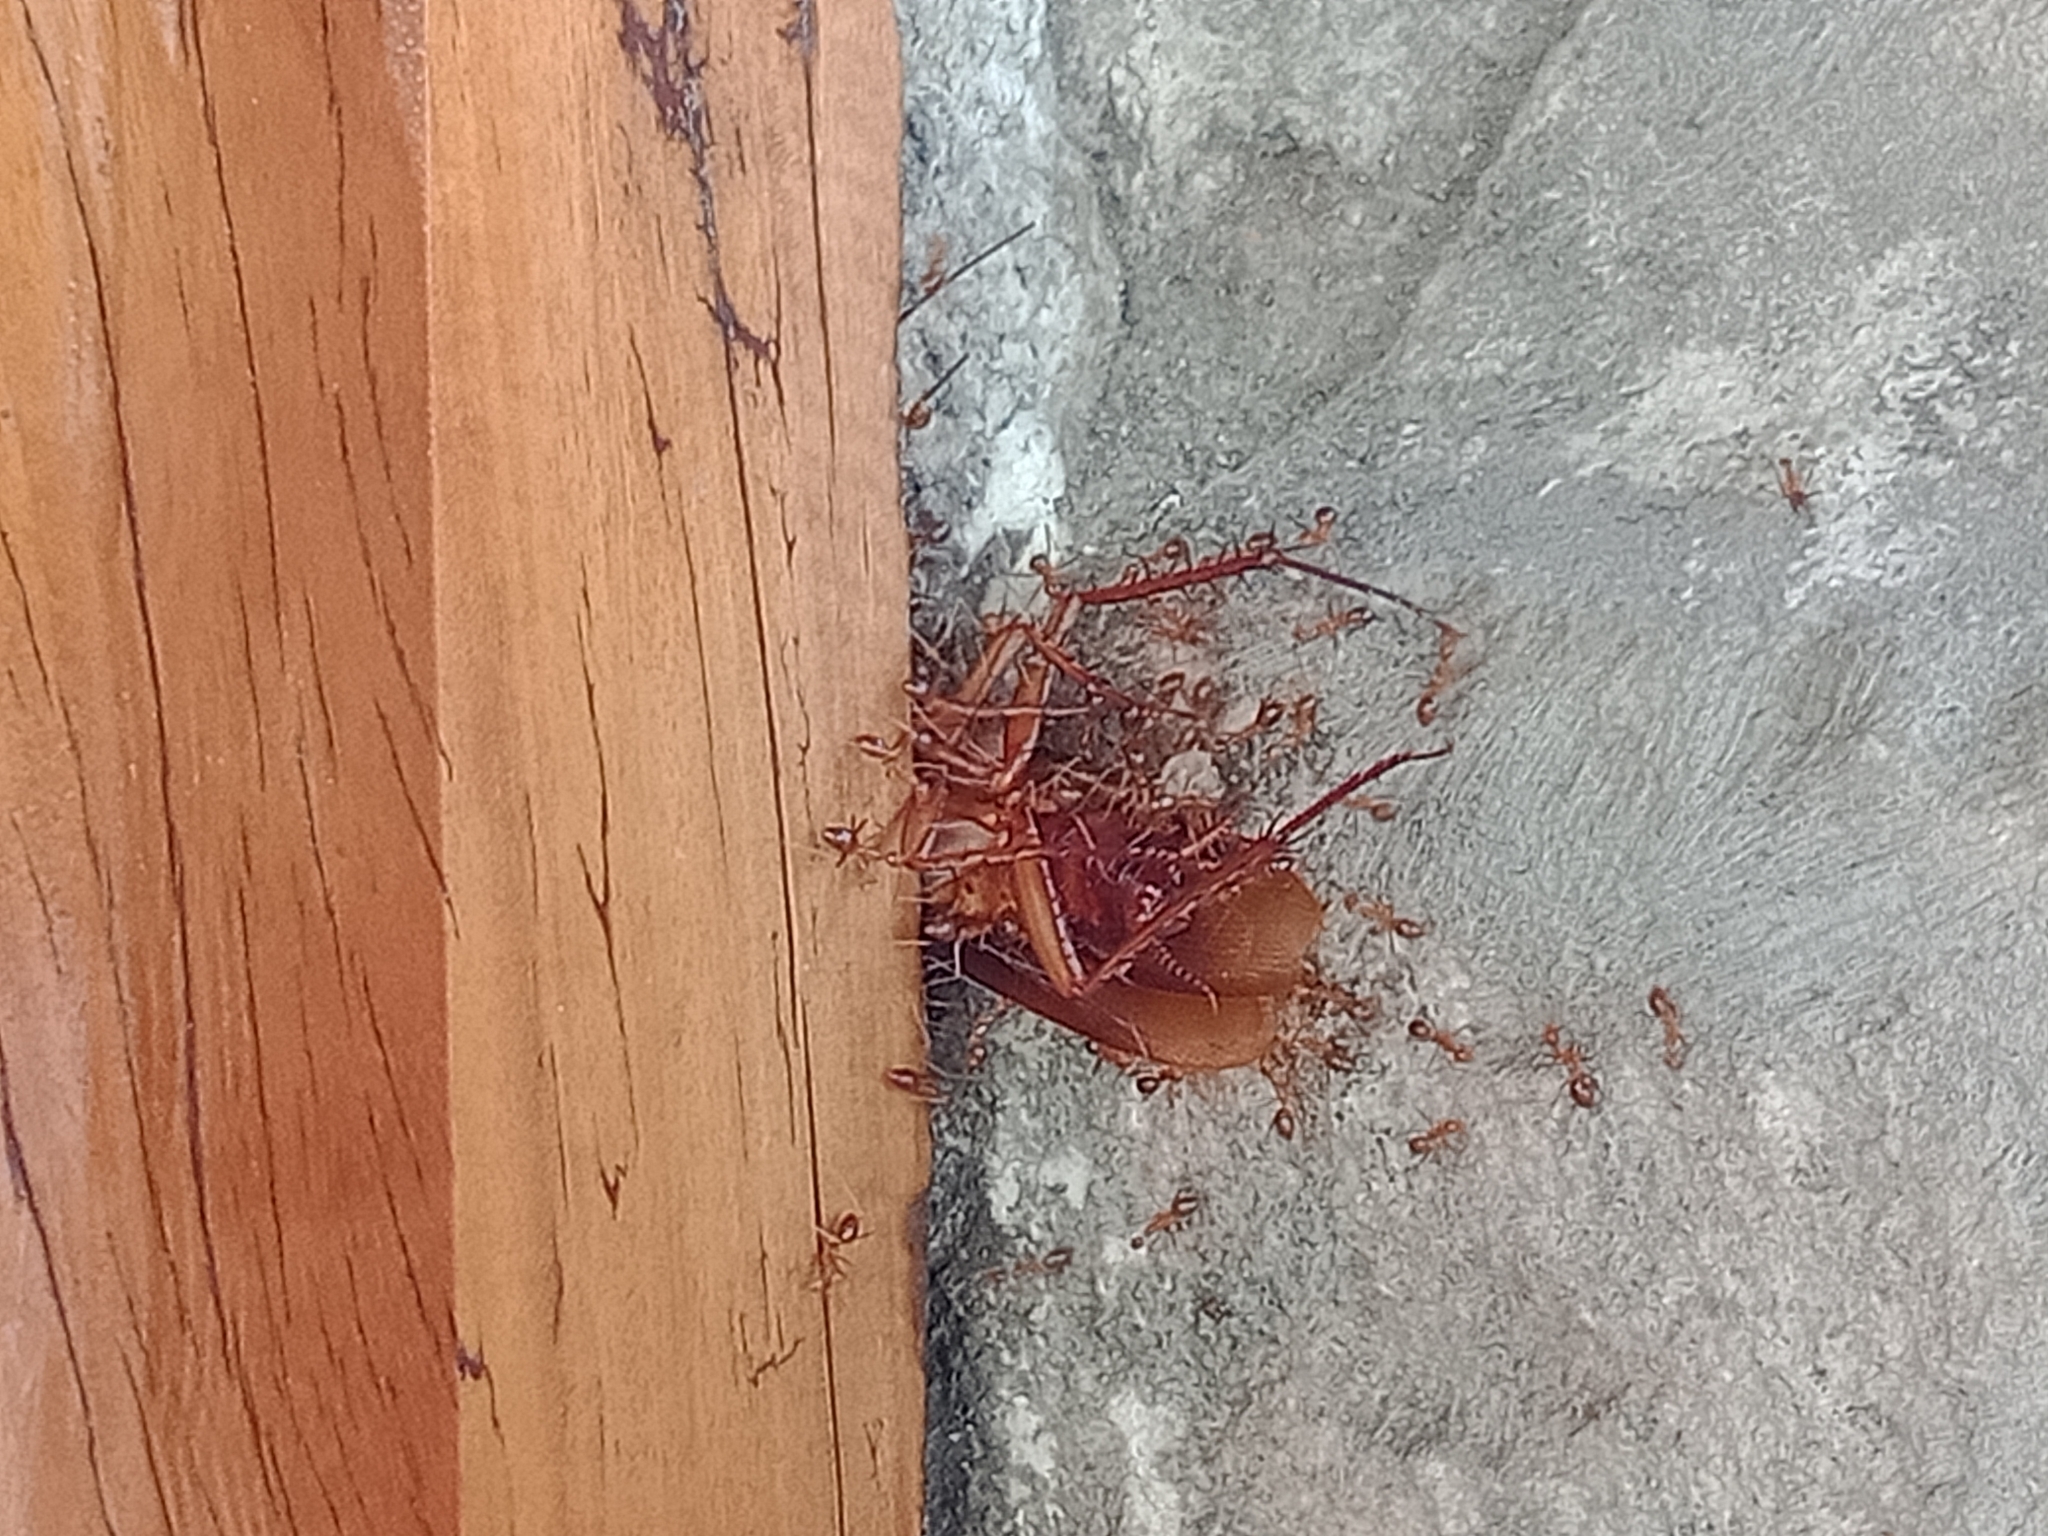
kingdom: Animalia
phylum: Arthropoda
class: Insecta
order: Blattodea
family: Blattidae
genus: Periplaneta
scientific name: Periplaneta americana
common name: American cockroach
